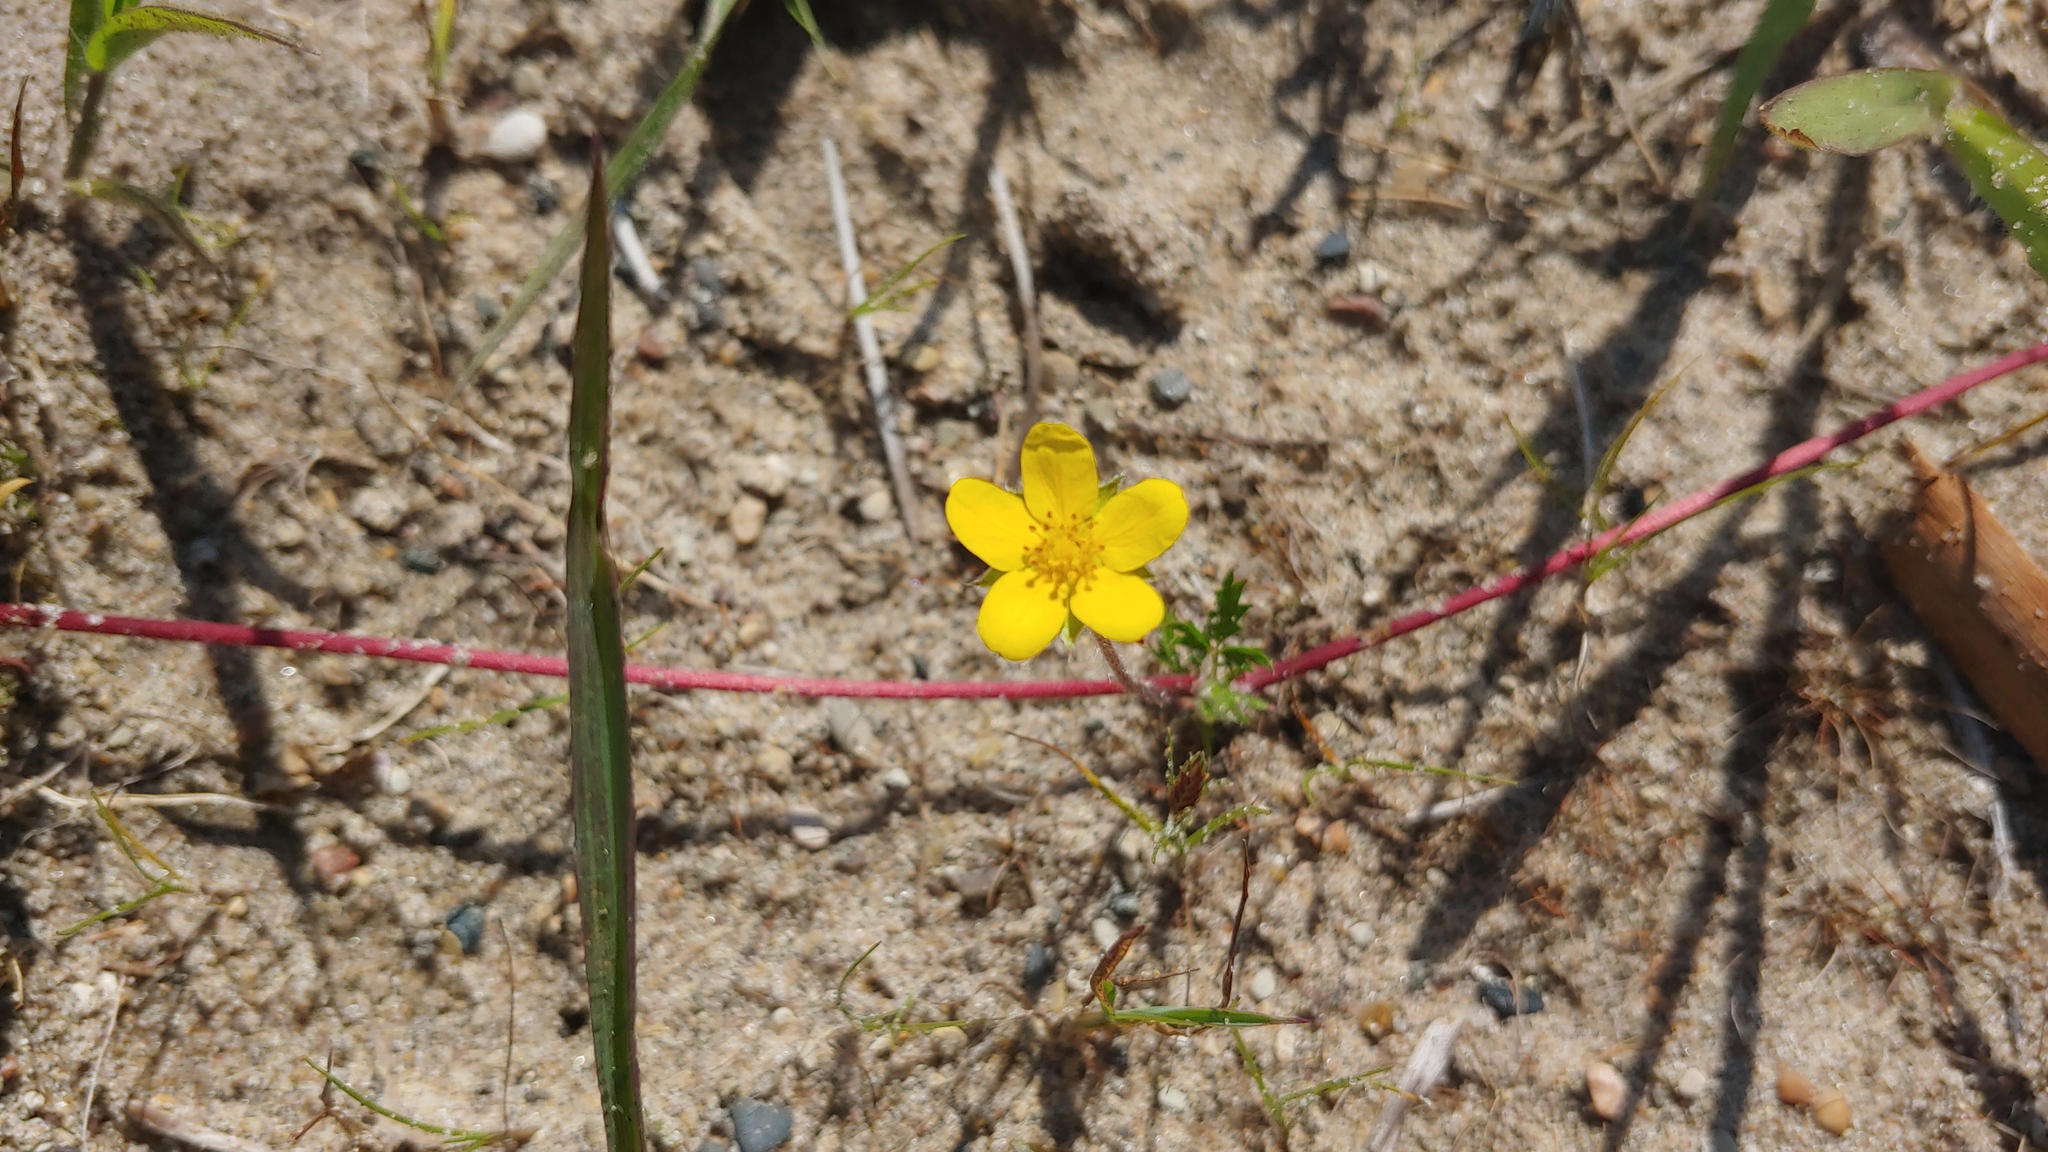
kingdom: Plantae
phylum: Tracheophyta
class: Magnoliopsida
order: Rosales
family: Rosaceae
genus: Argentina
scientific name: Argentina anserina
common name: Common silverweed
